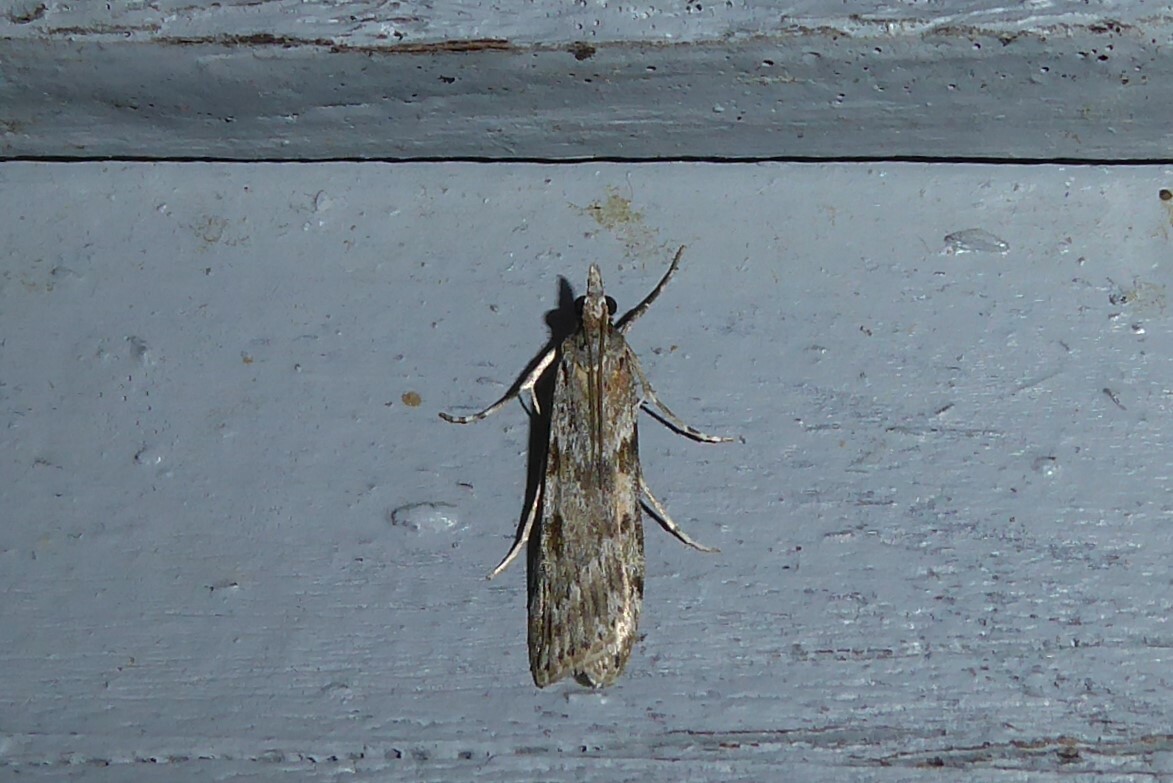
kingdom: Animalia
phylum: Arthropoda
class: Insecta
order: Lepidoptera
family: Crambidae
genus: Scoparia
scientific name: Scoparia halopis
